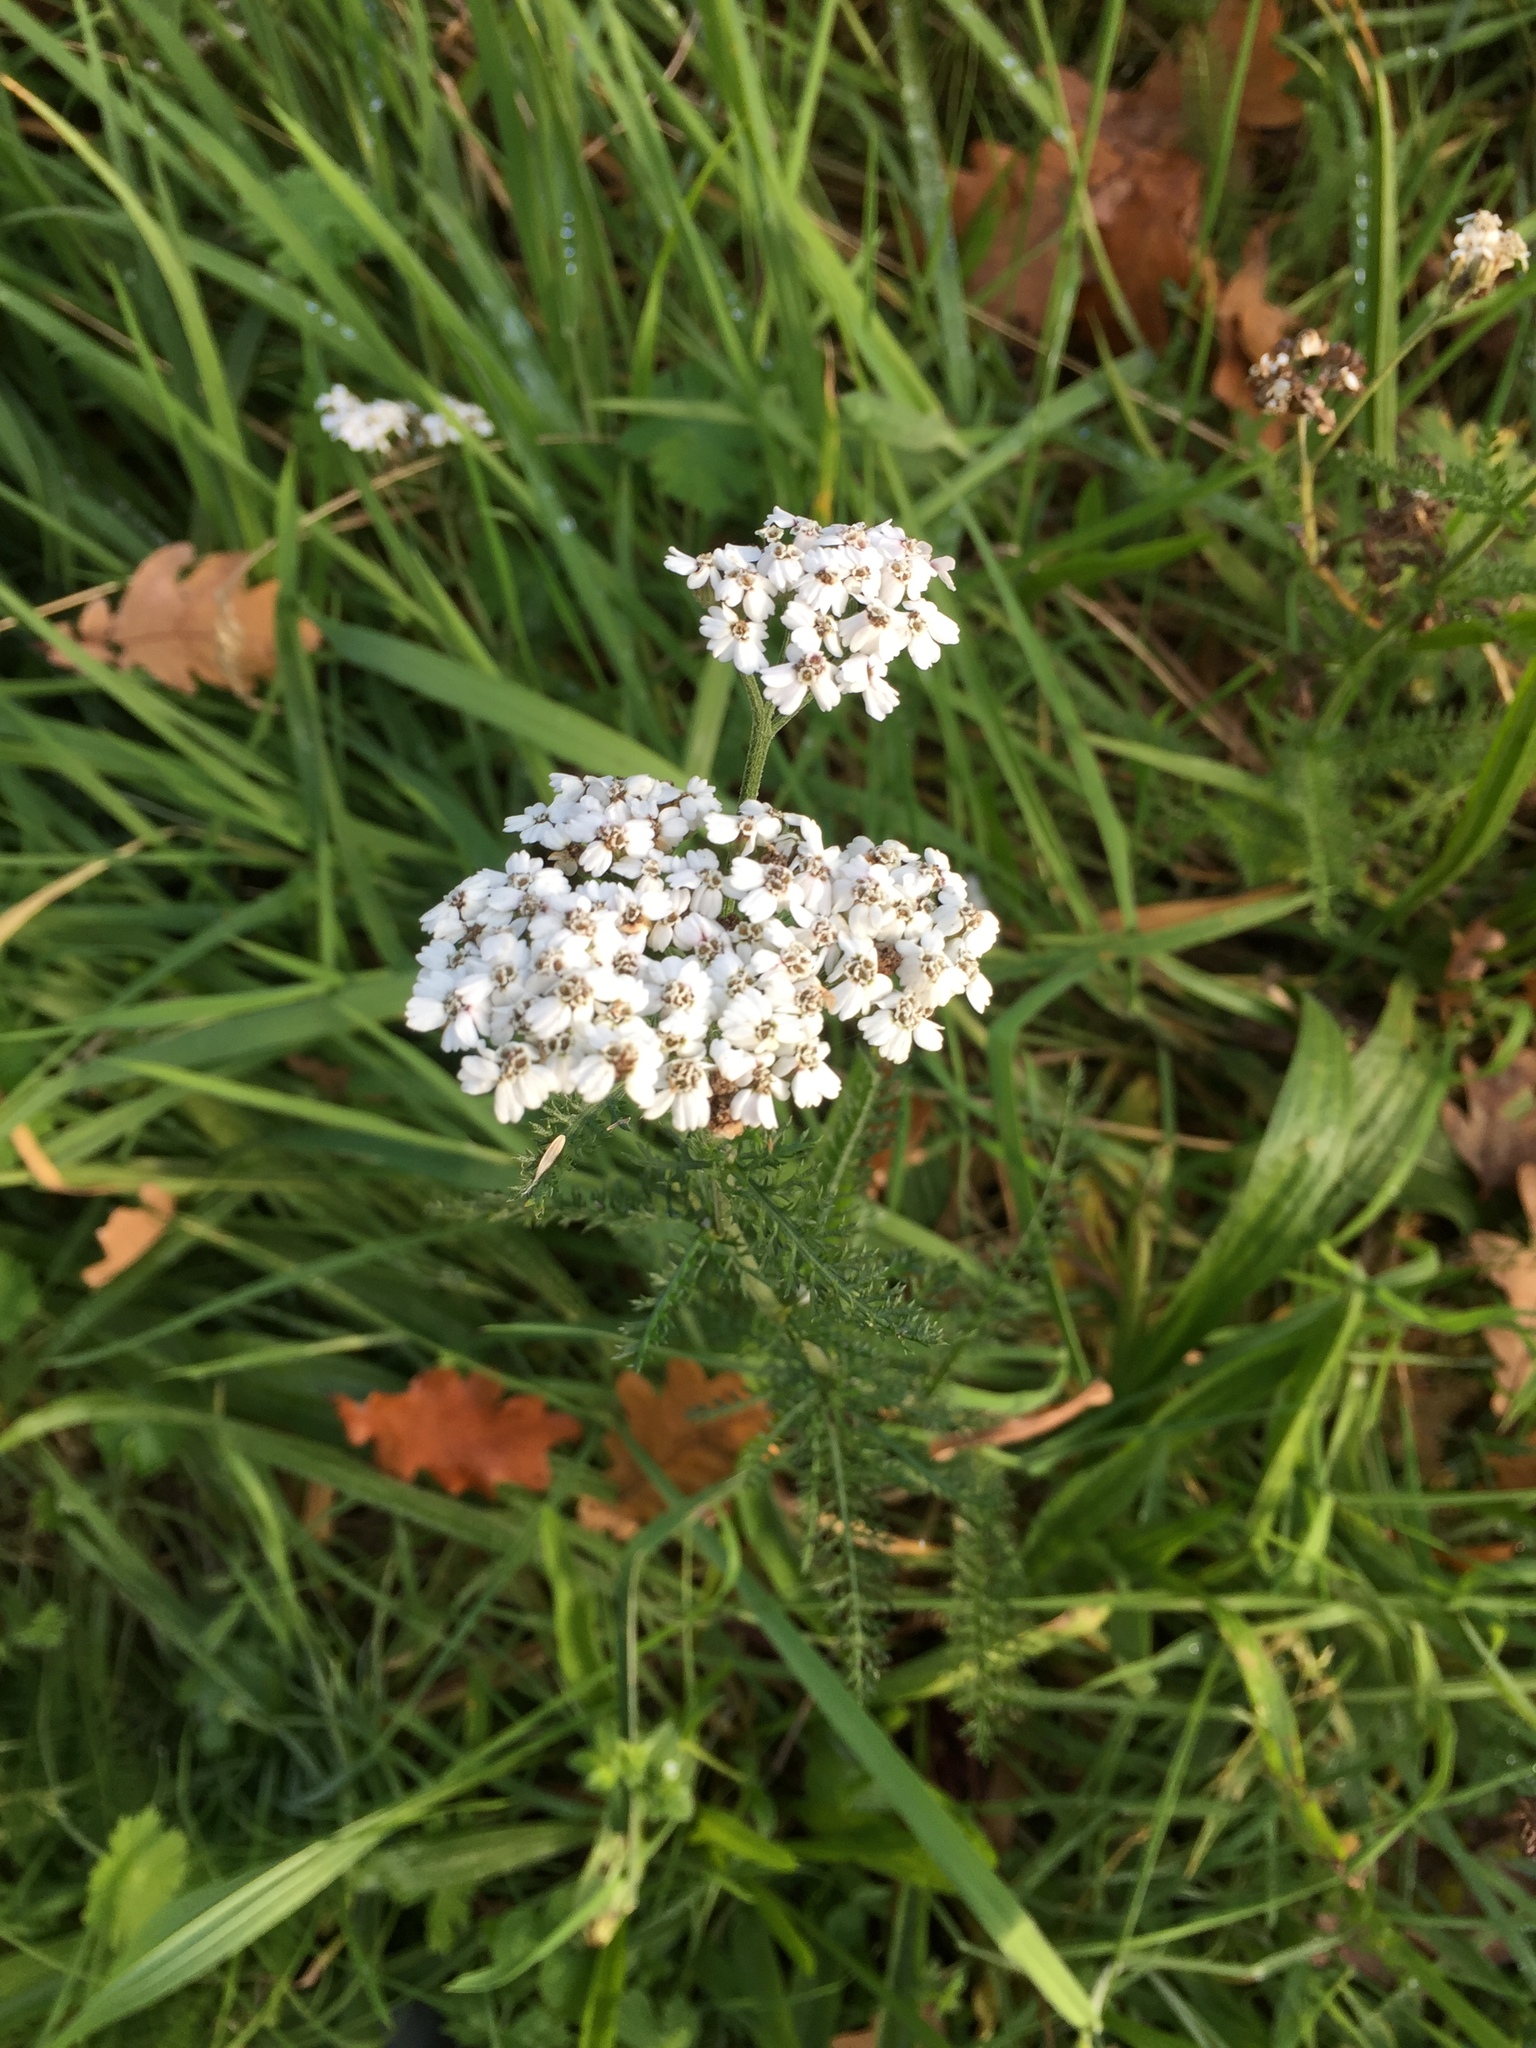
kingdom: Plantae
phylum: Tracheophyta
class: Magnoliopsida
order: Asterales
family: Asteraceae
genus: Achillea
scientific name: Achillea millefolium
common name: Yarrow
